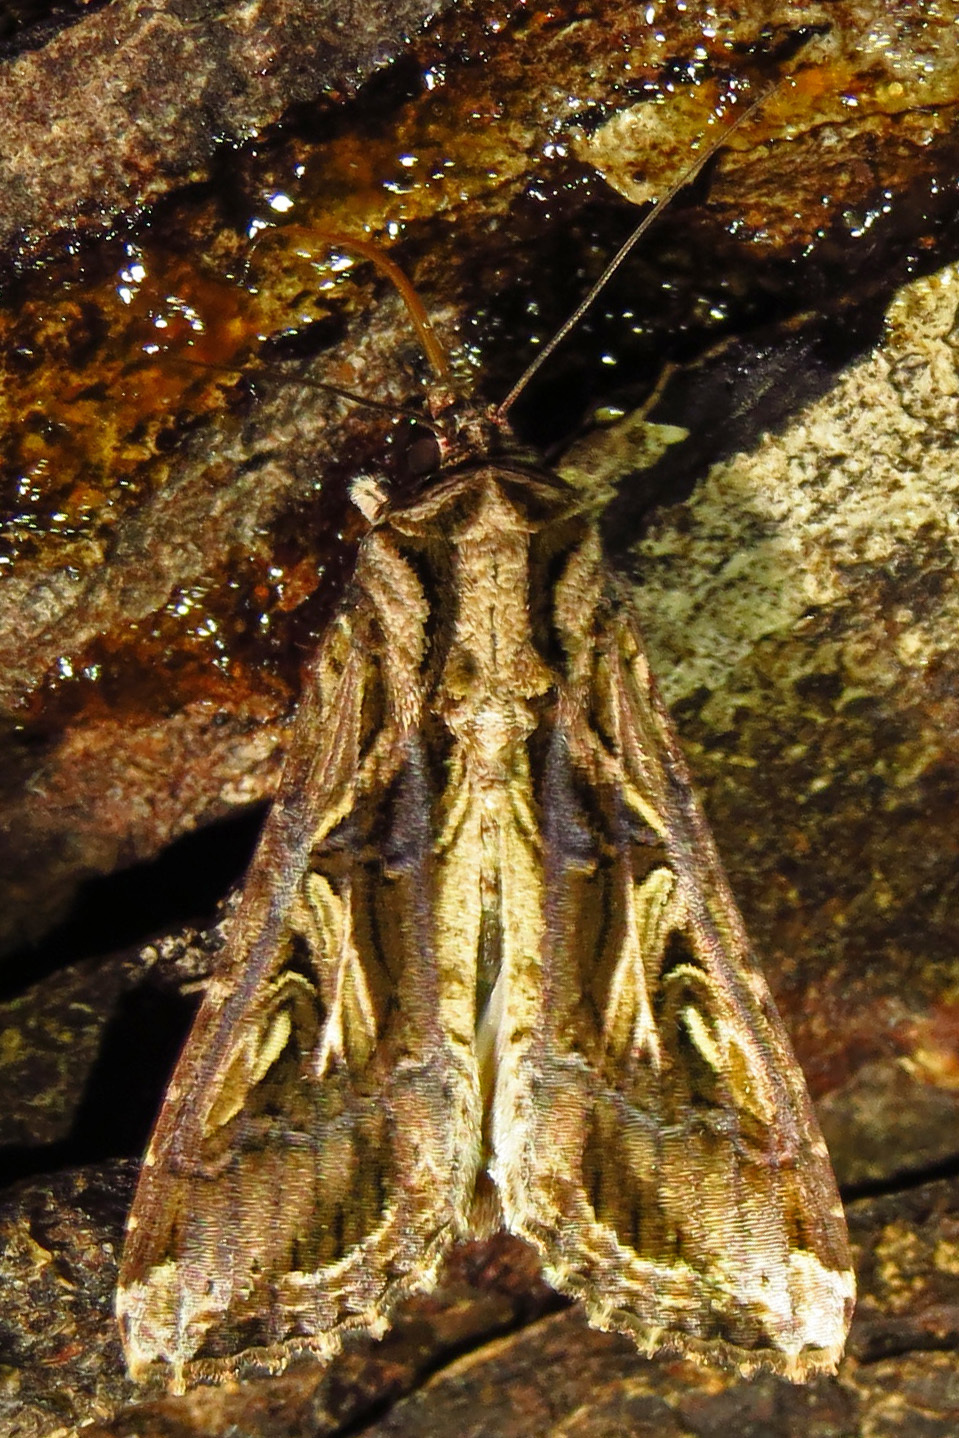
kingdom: Animalia
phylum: Arthropoda
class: Insecta
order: Lepidoptera
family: Noctuidae
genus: Spodoptera
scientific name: Spodoptera dolichos
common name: Sweetpotato armyworm
